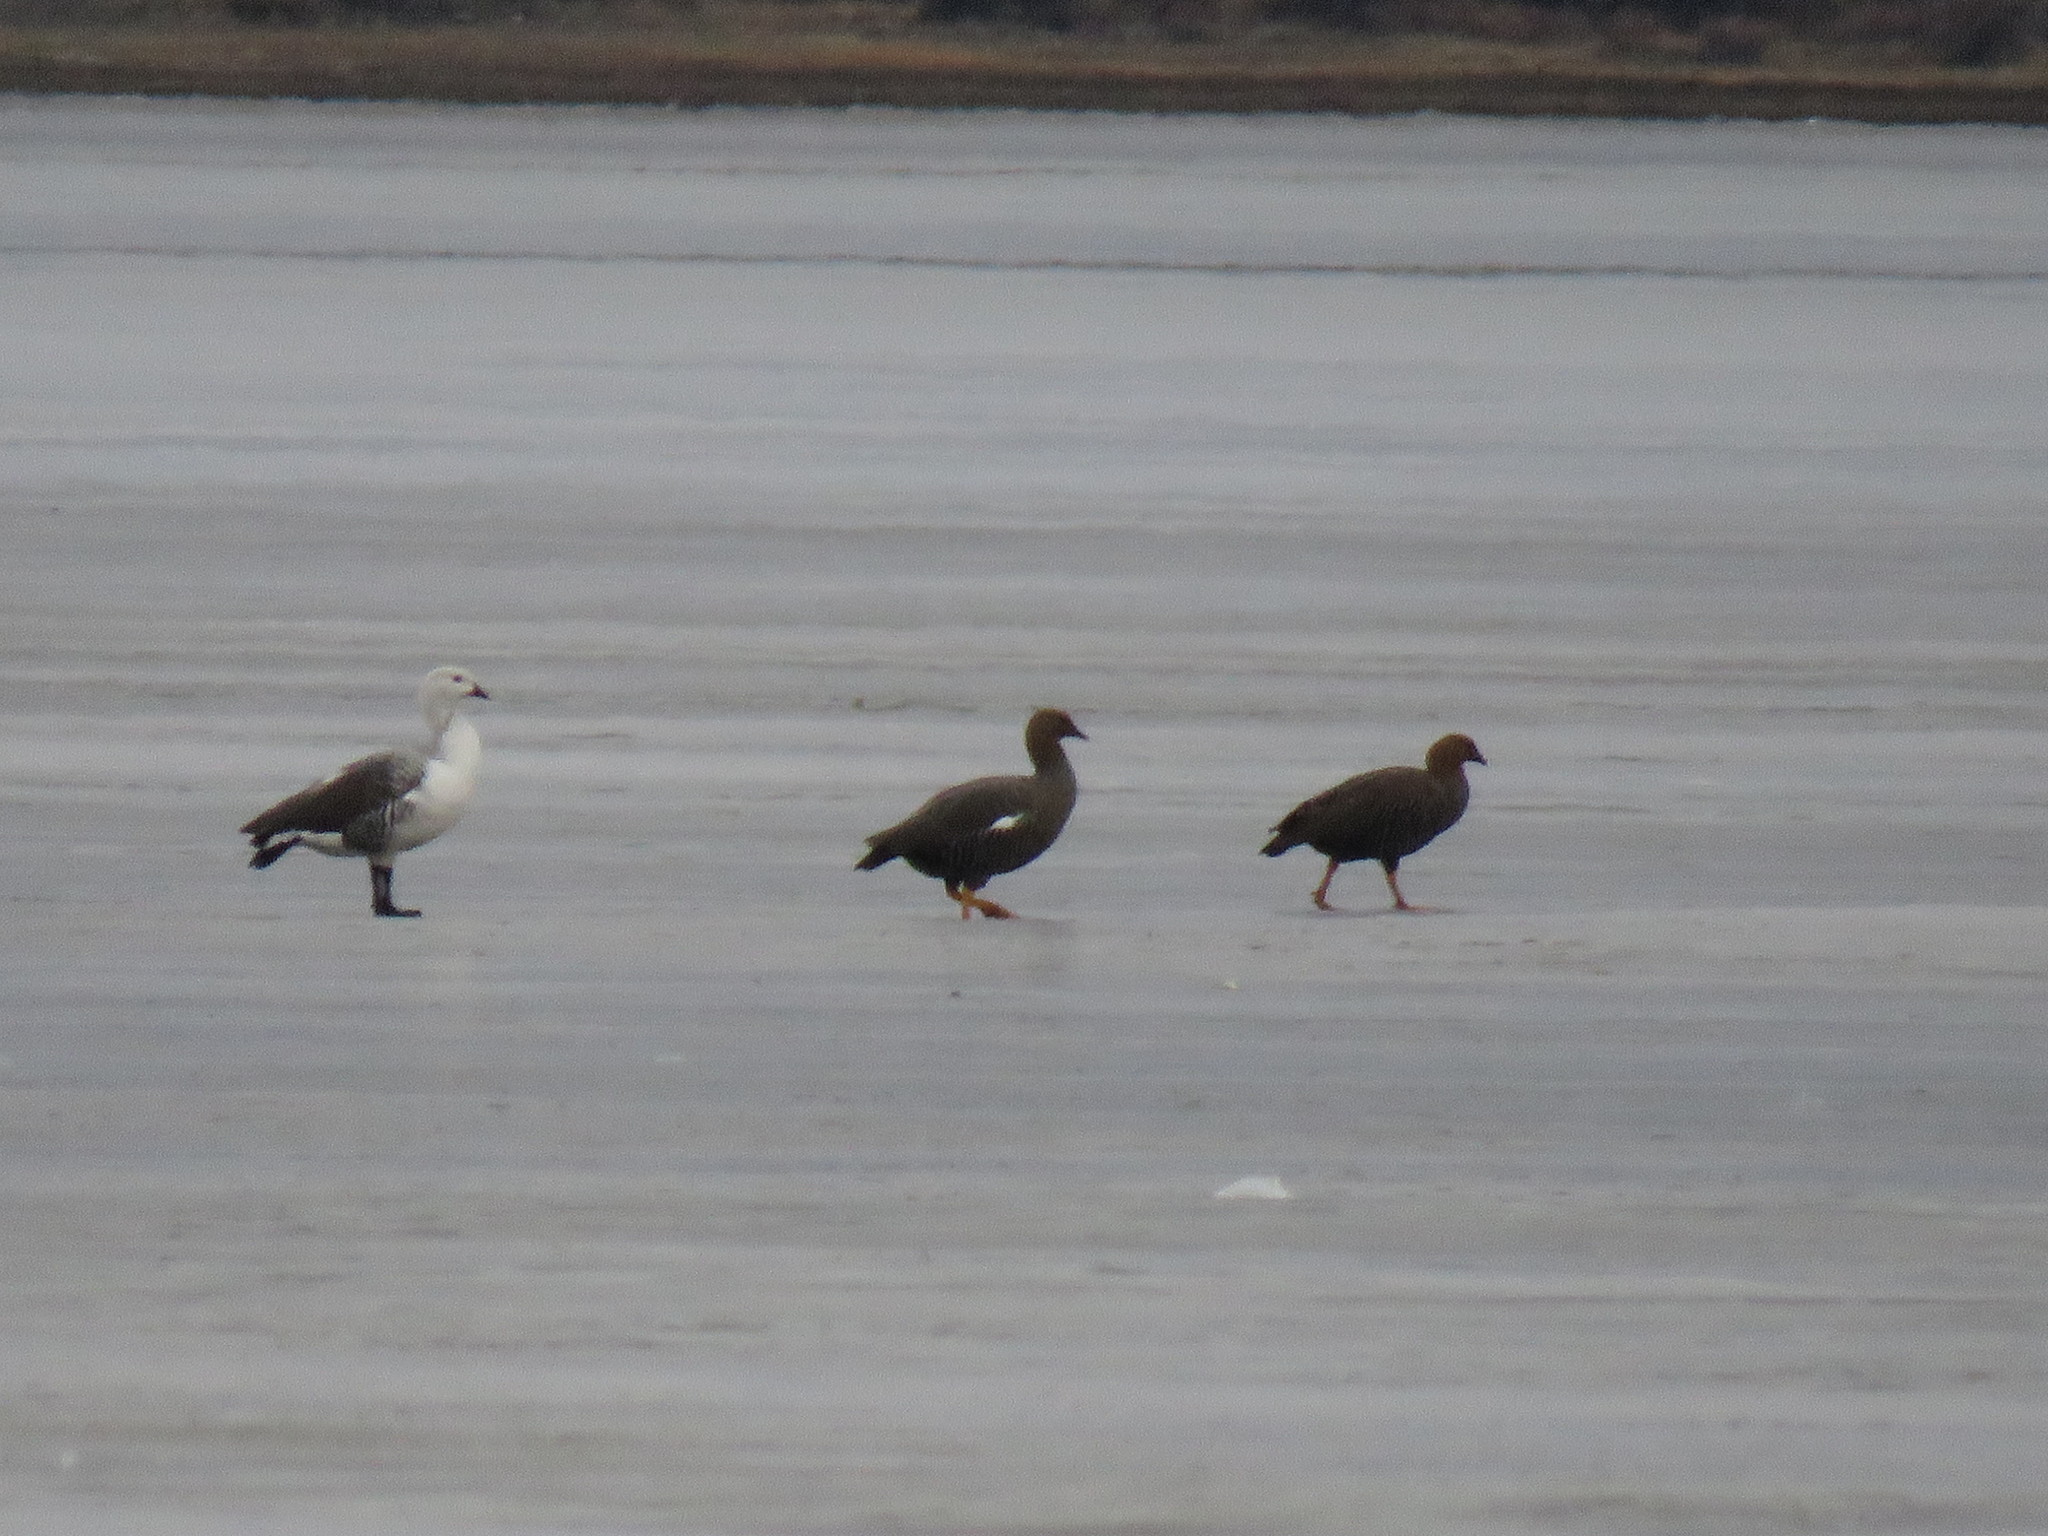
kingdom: Animalia
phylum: Chordata
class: Aves
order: Anseriformes
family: Anatidae
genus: Chloephaga
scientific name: Chloephaga picta
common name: Upland goose
